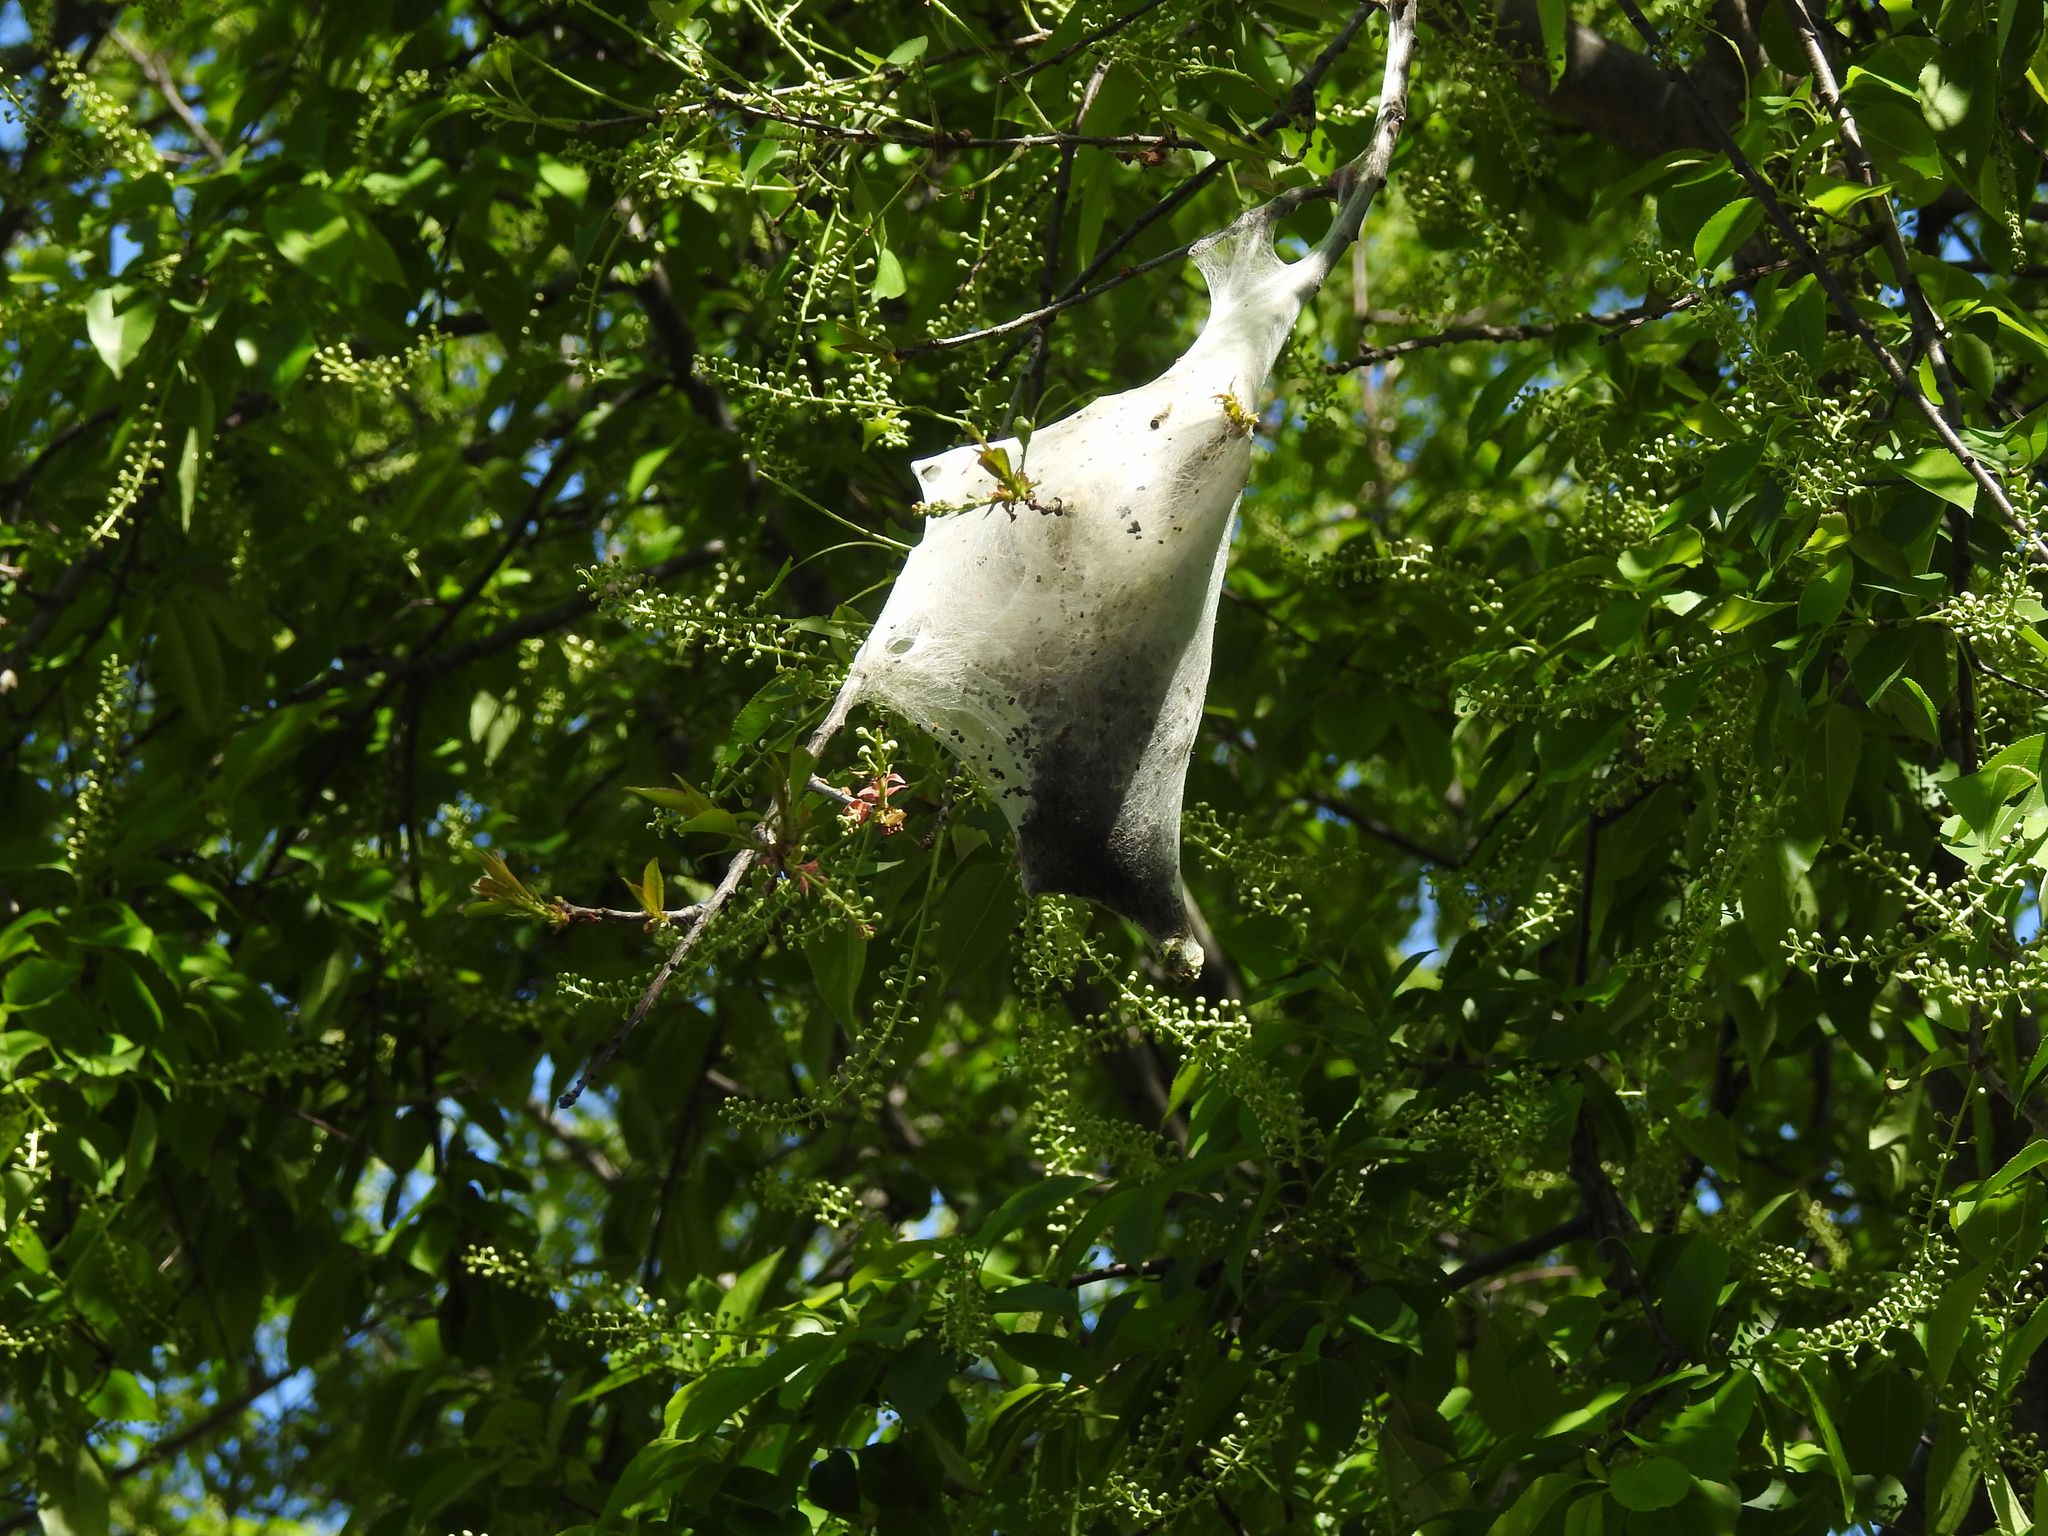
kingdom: Animalia
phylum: Arthropoda
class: Insecta
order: Lepidoptera
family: Lasiocampidae
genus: Malacosoma
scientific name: Malacosoma americana
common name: Eastern tent caterpillar moth
